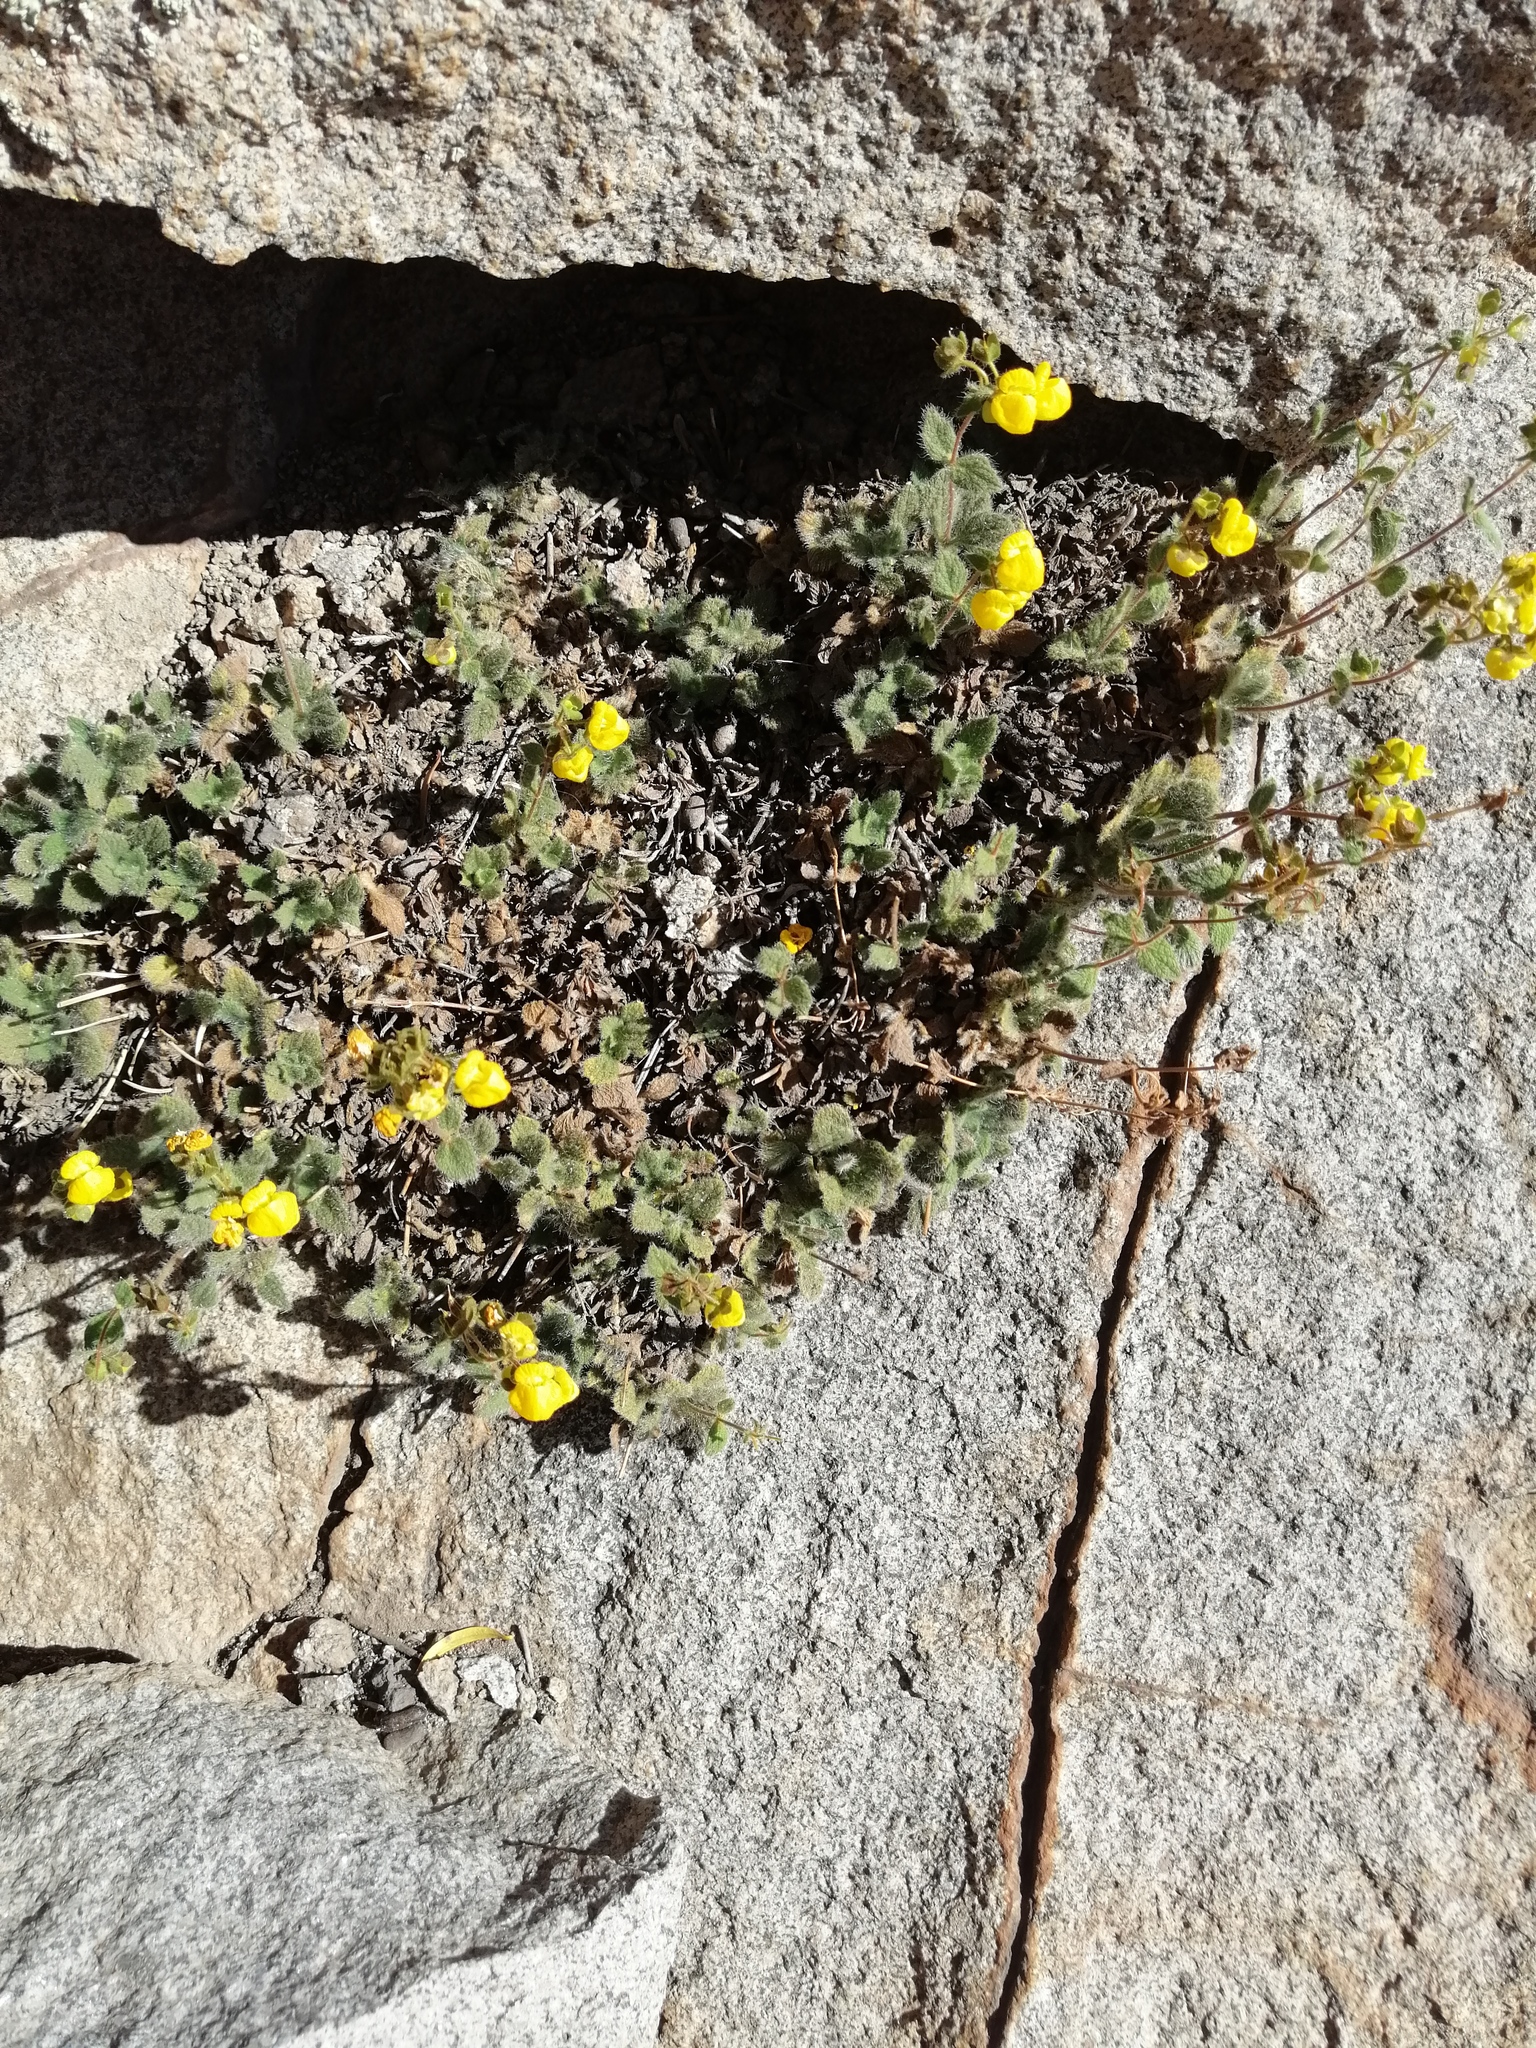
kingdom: Plantae
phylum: Tracheophyta
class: Magnoliopsida
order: Lamiales
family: Calceolariaceae
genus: Calceolaria
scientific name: Calceolaria caleuana
